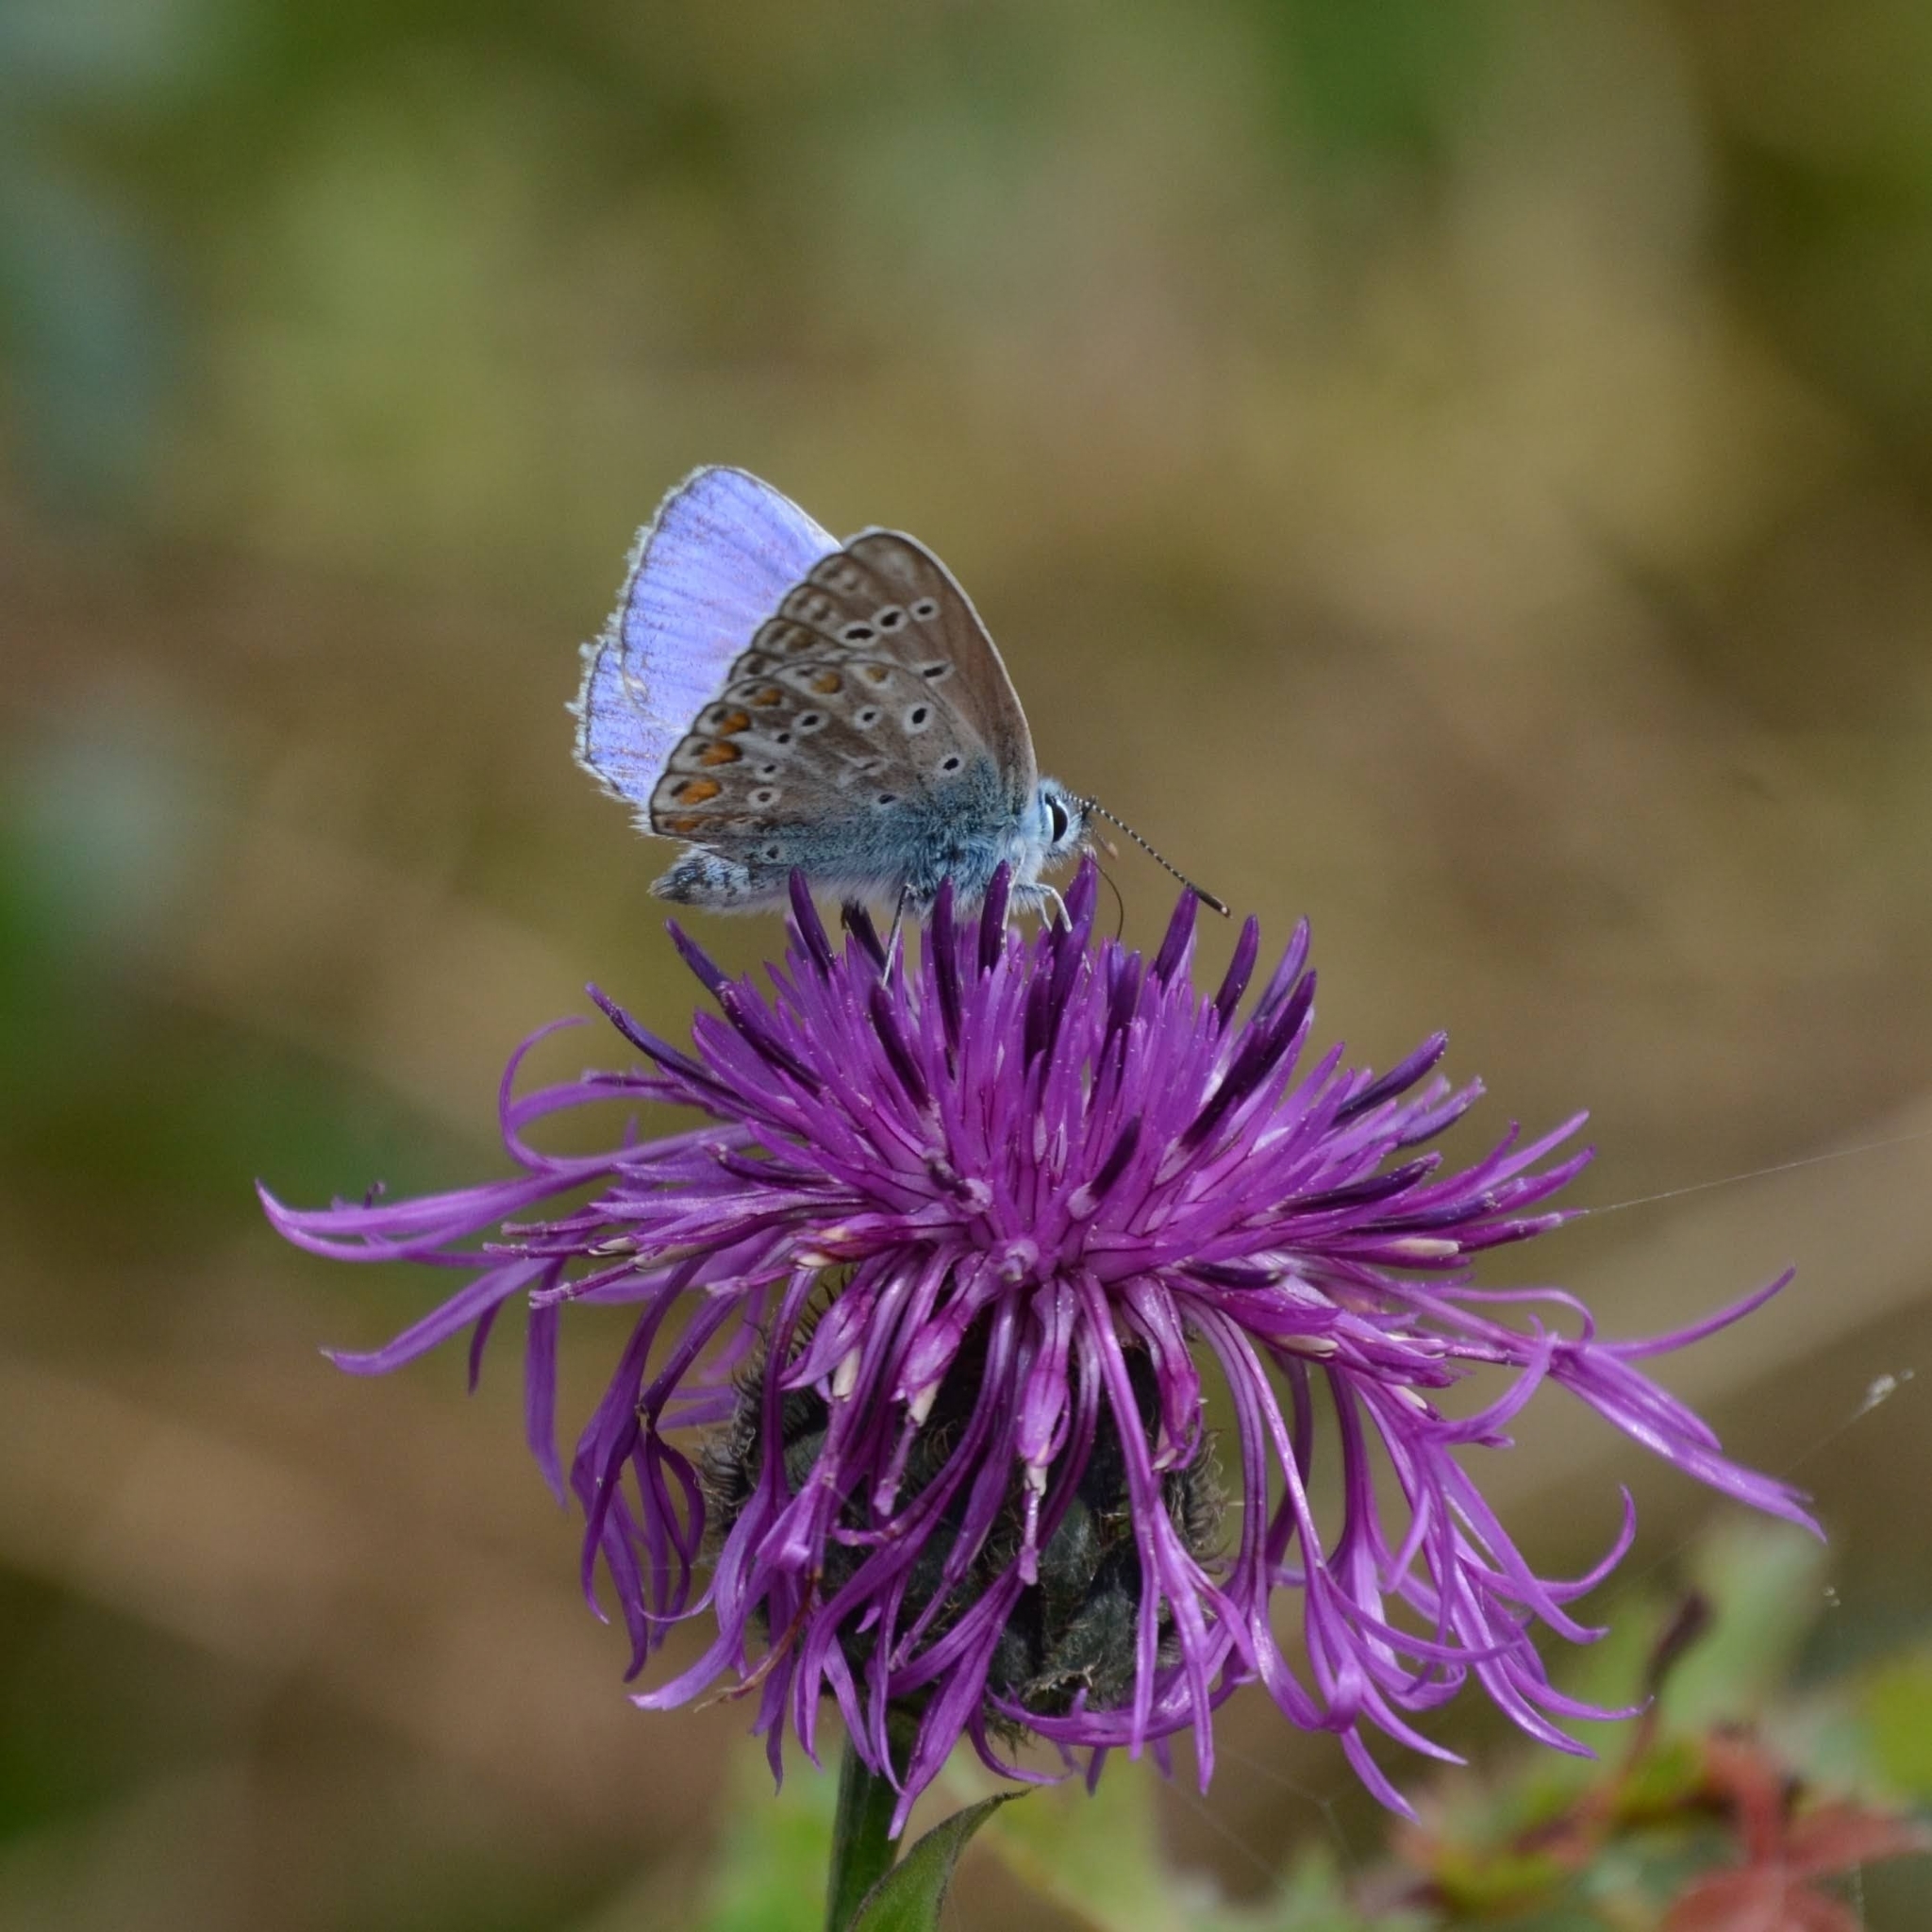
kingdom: Animalia
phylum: Arthropoda
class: Insecta
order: Lepidoptera
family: Lycaenidae
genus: Polyommatus
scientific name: Polyommatus icarus
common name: Common blue
